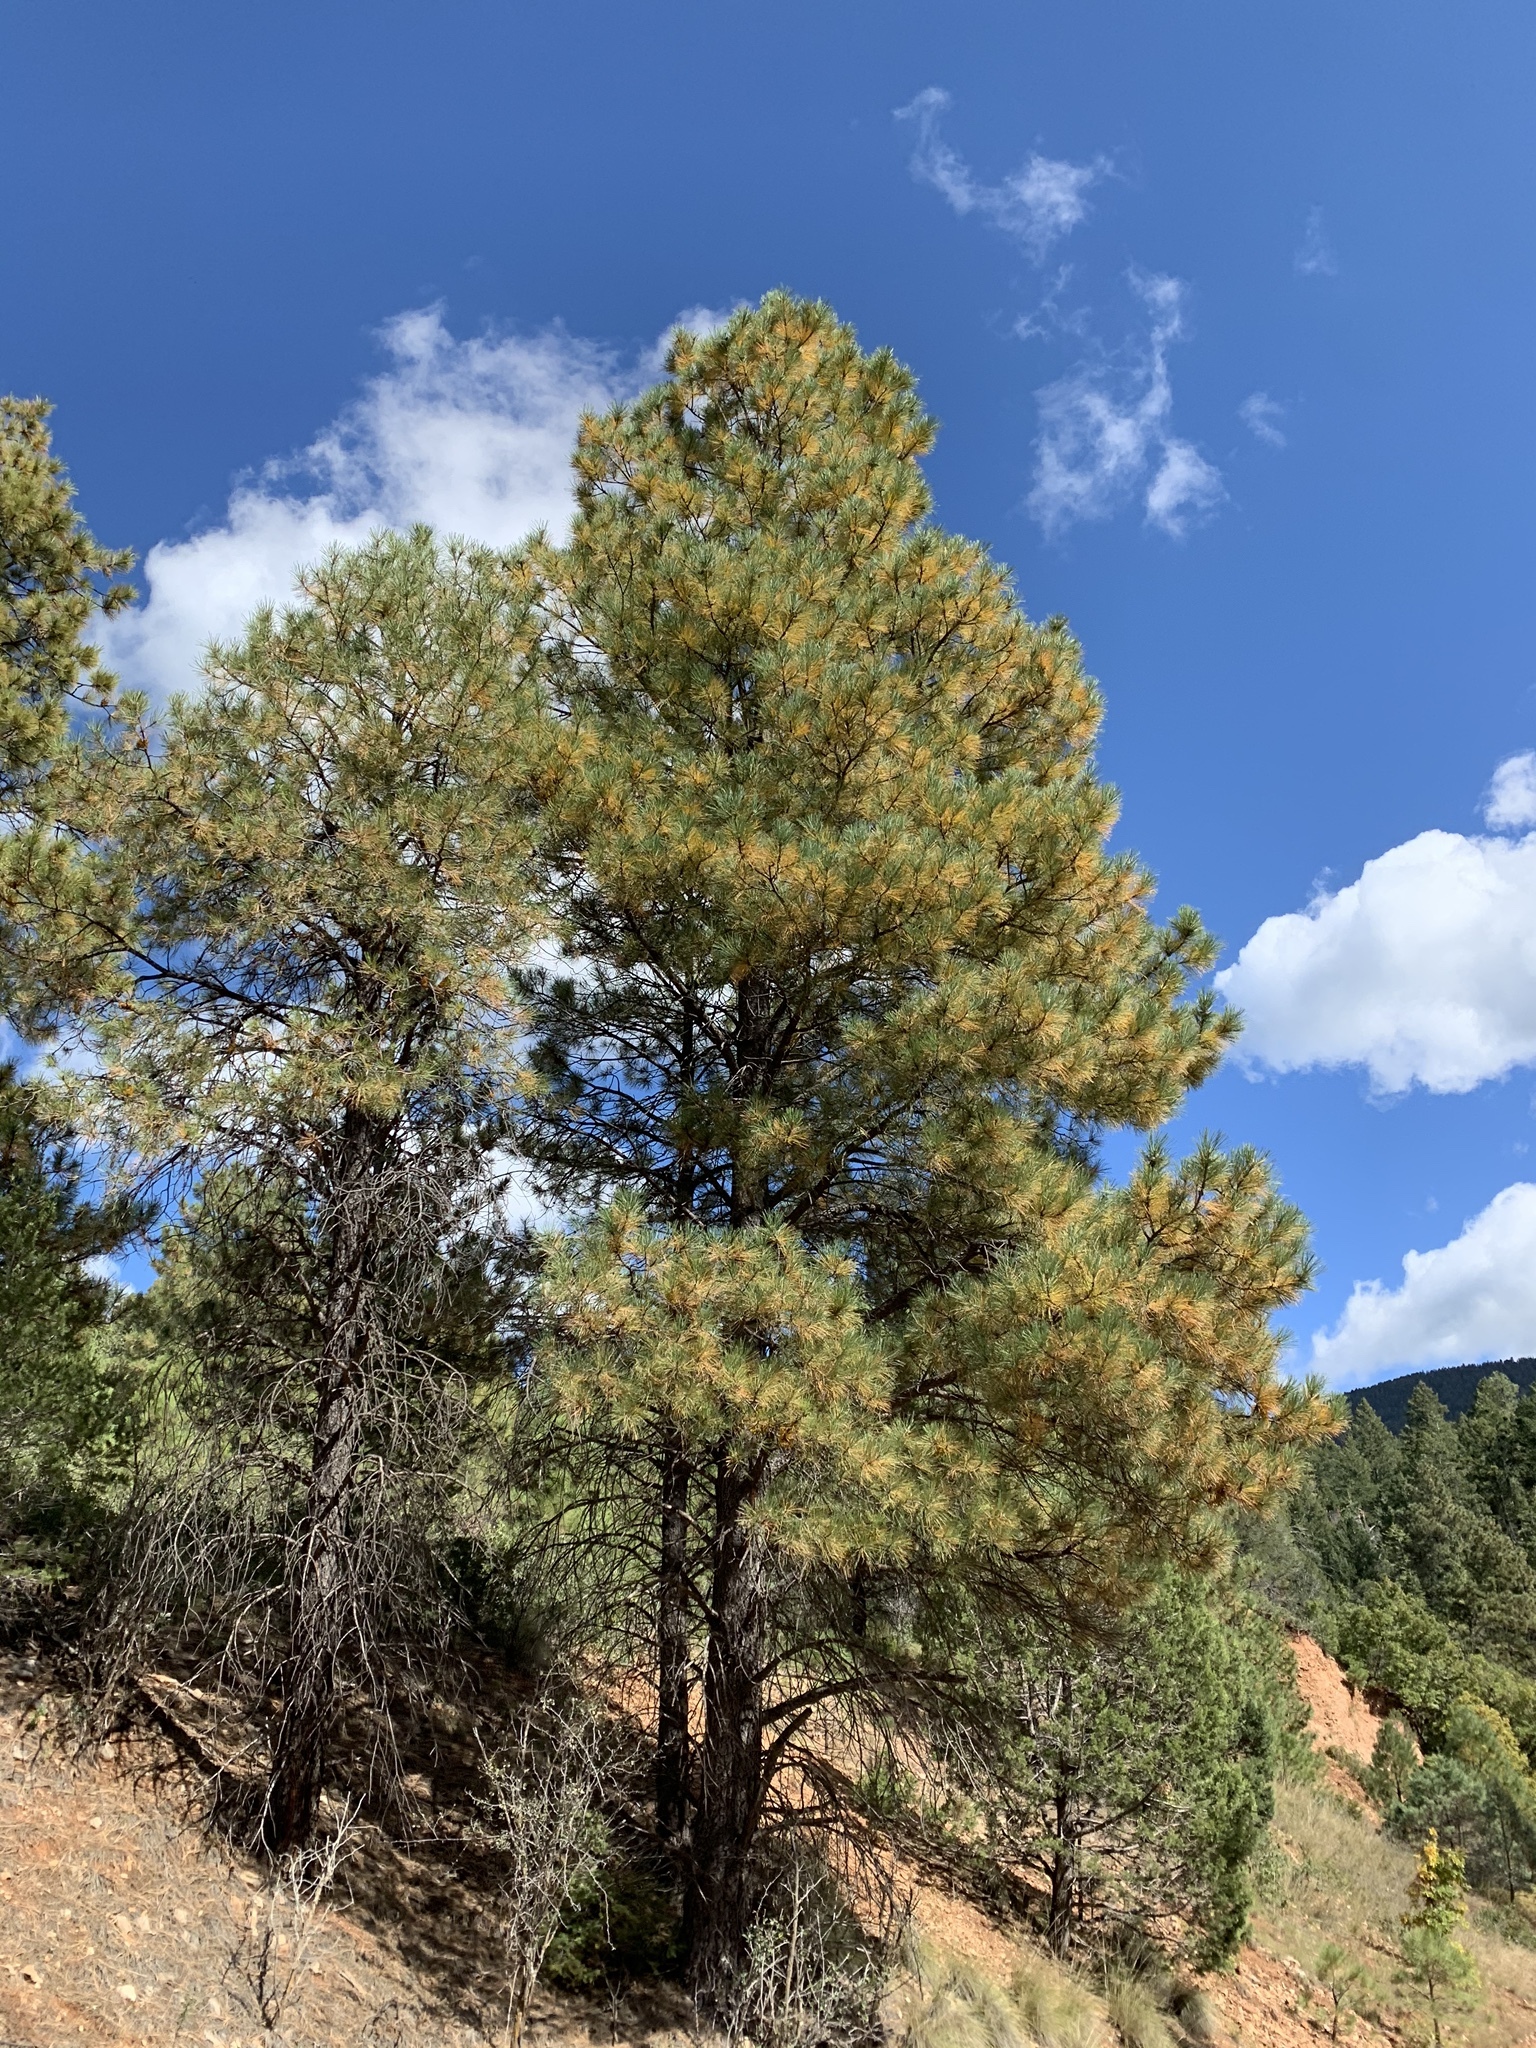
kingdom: Plantae
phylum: Tracheophyta
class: Pinopsida
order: Pinales
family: Pinaceae
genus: Pinus
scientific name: Pinus ponderosa
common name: Western yellow-pine
